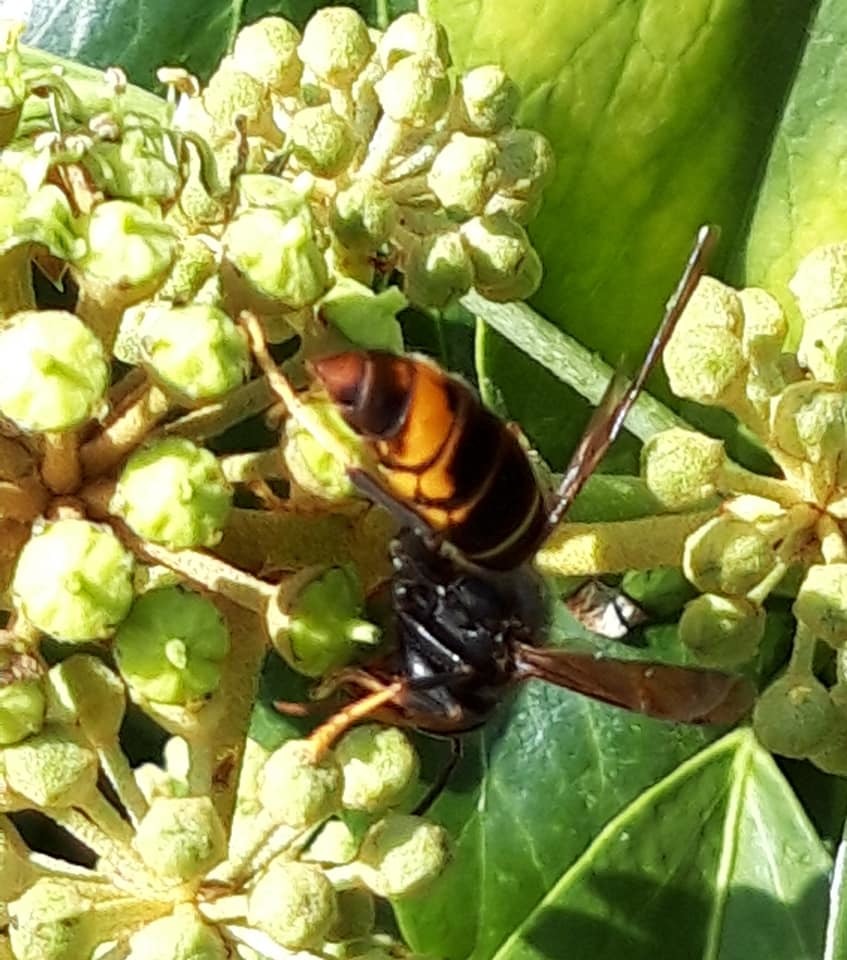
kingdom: Animalia
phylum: Arthropoda
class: Insecta
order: Hymenoptera
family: Vespidae
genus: Vespa
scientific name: Vespa velutina
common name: Asian hornet
